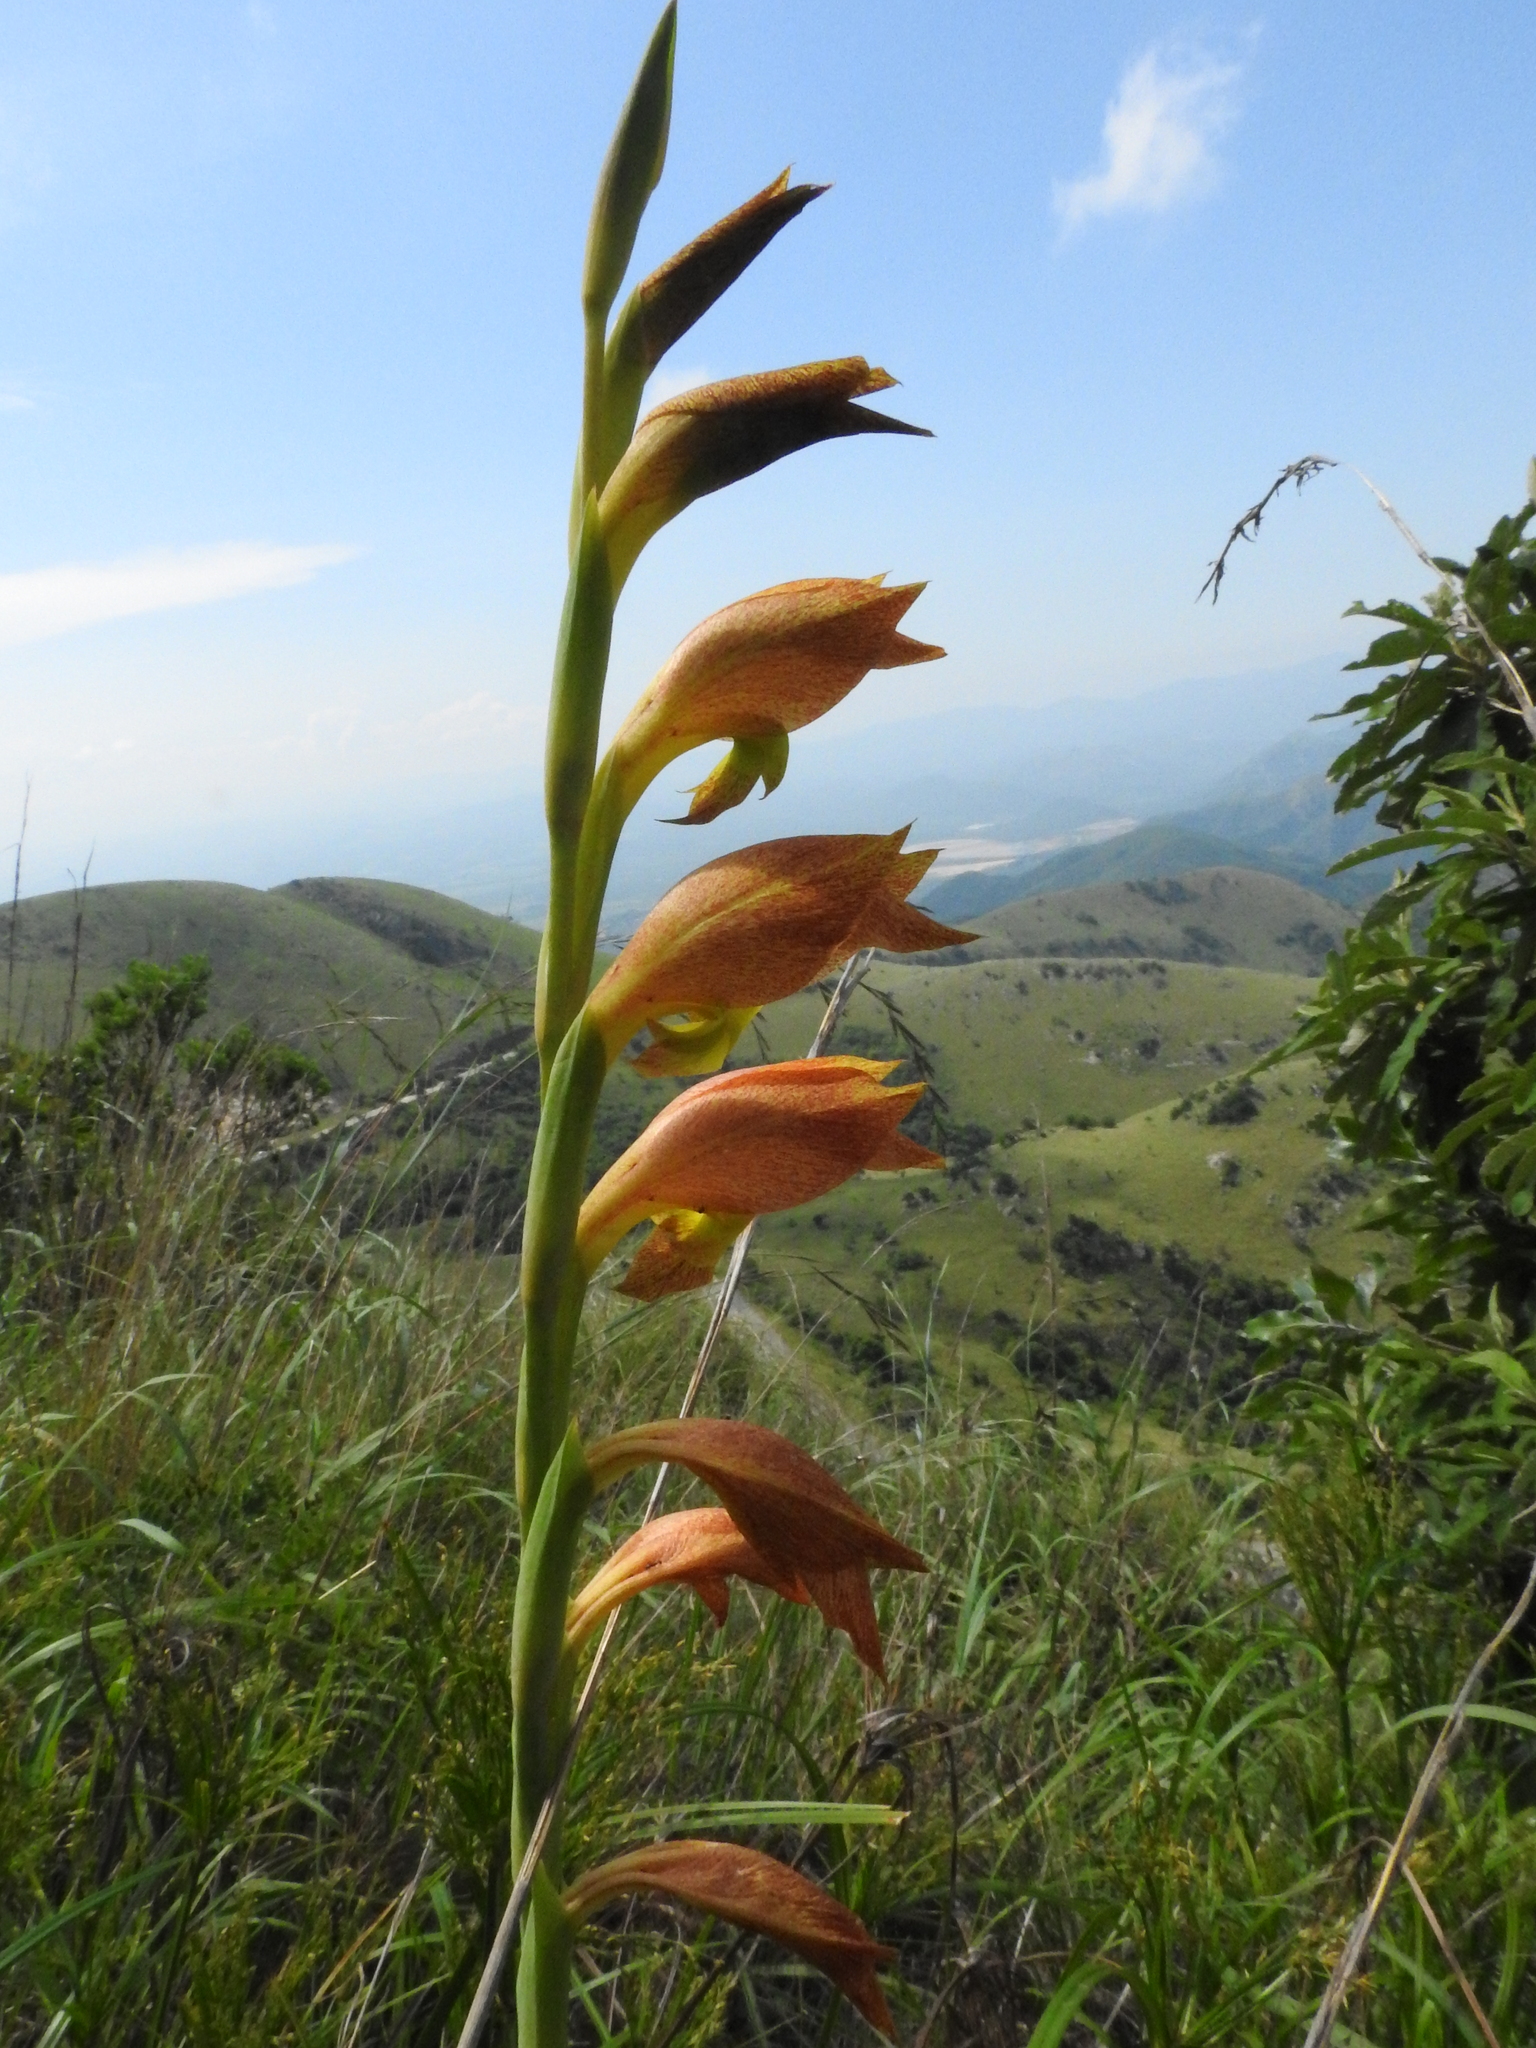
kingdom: Plantae
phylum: Tracheophyta
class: Liliopsida
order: Asparagales
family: Iridaceae
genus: Gladiolus
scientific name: Gladiolus dalenii
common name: Cornflag
